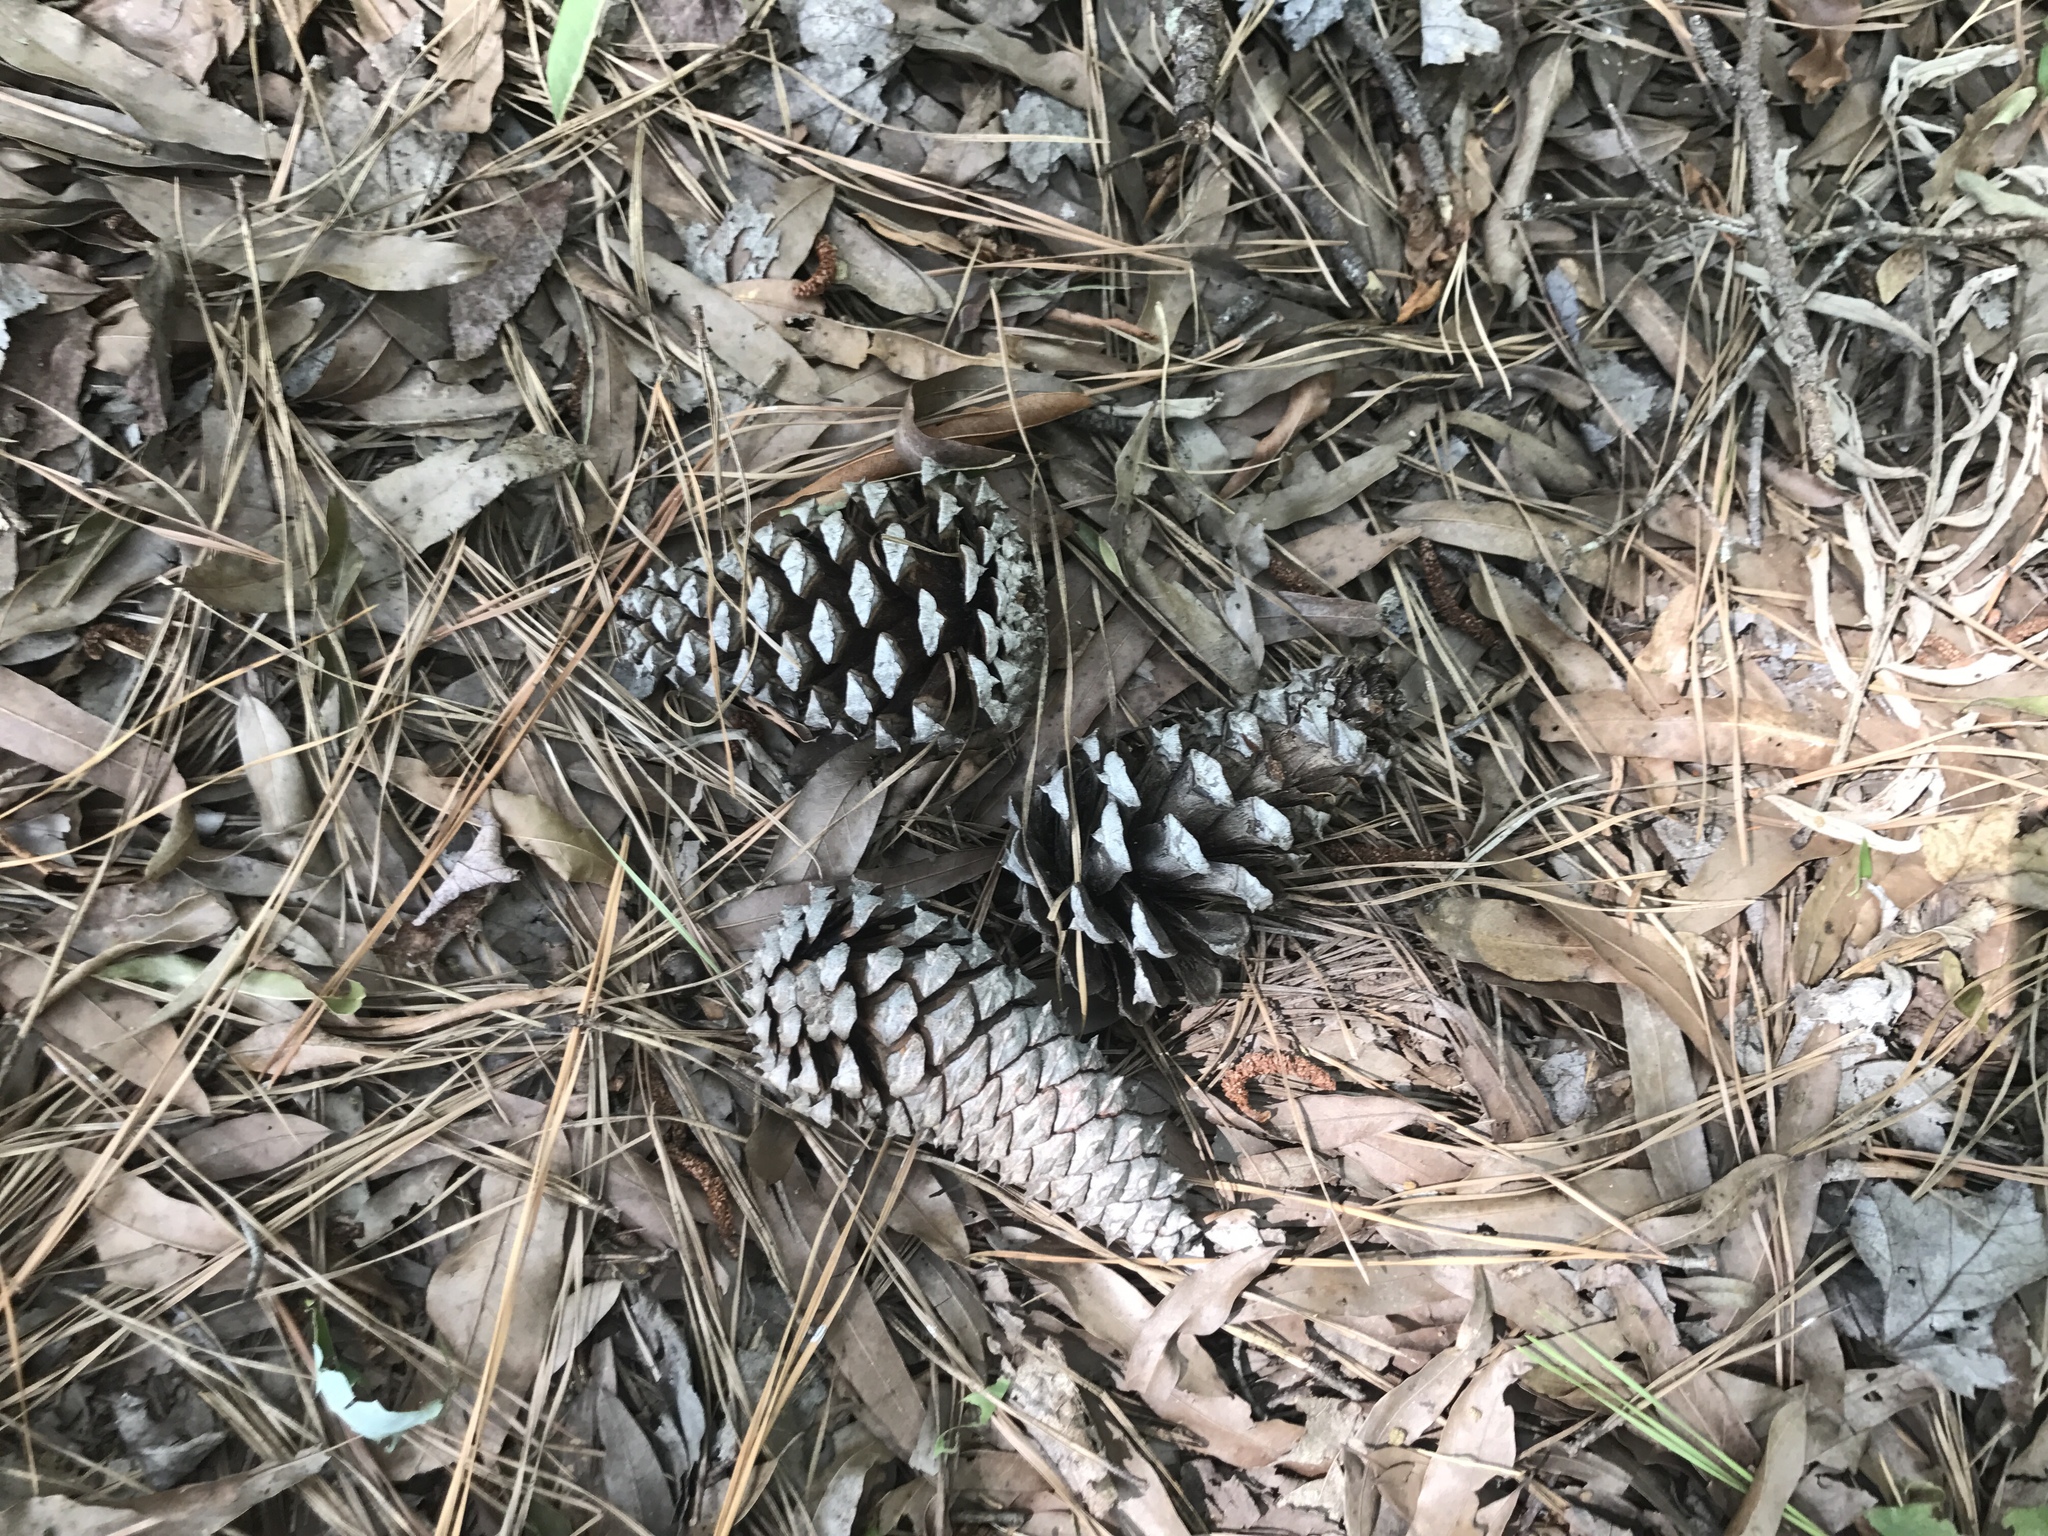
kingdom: Plantae
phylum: Tracheophyta
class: Pinopsida
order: Pinales
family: Pinaceae
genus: Pinus
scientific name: Pinus taeda
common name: Loblolly pine
